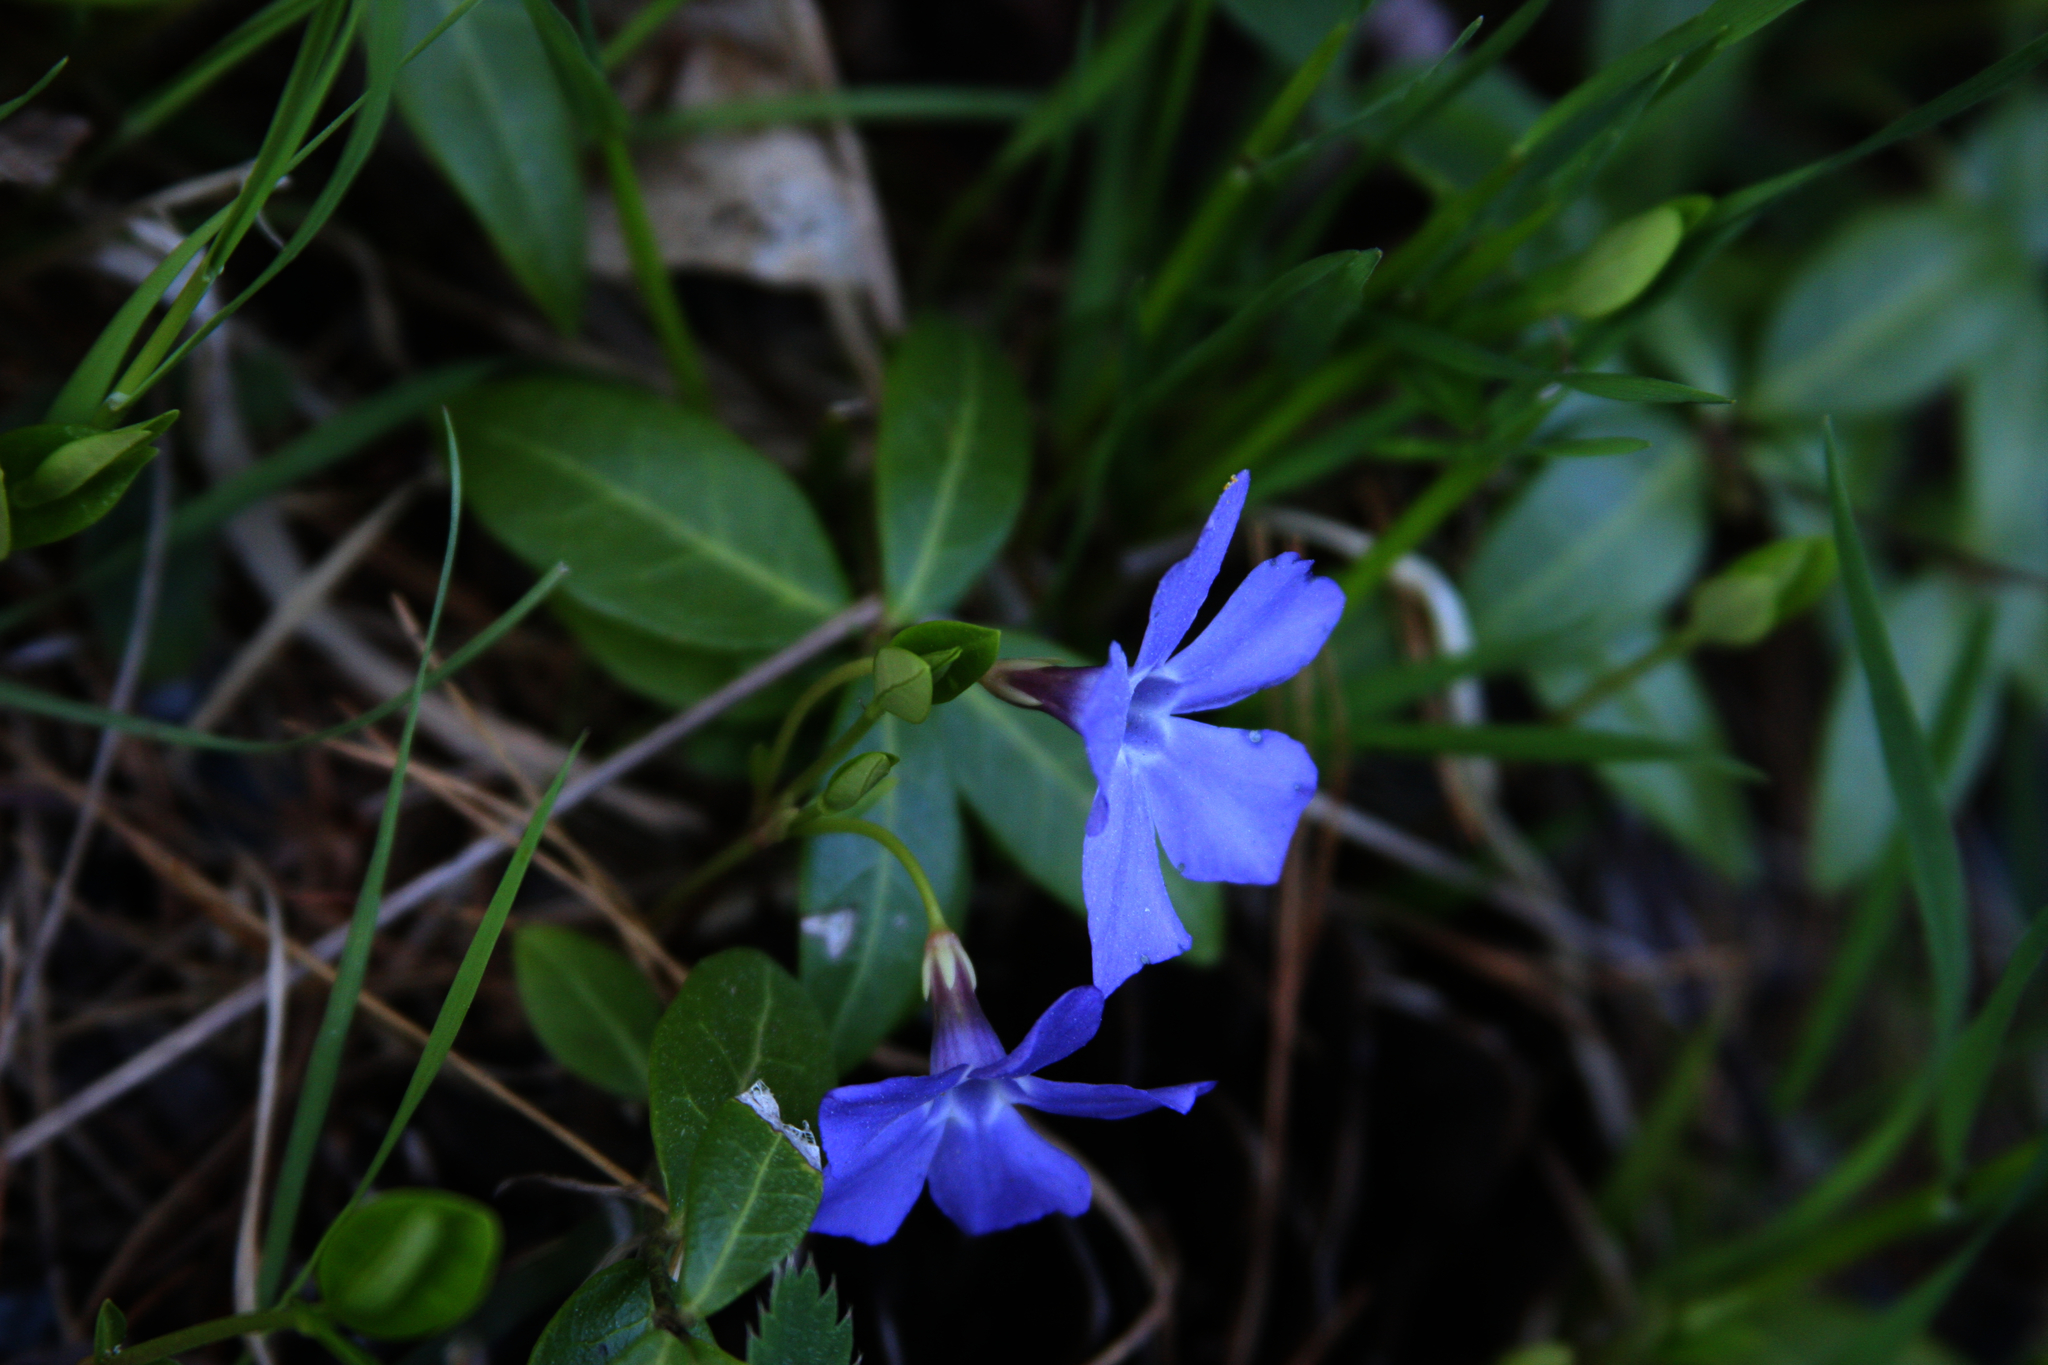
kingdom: Plantae
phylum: Tracheophyta
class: Magnoliopsida
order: Gentianales
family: Apocynaceae
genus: Vinca
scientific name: Vinca minor
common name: Lesser periwinkle
